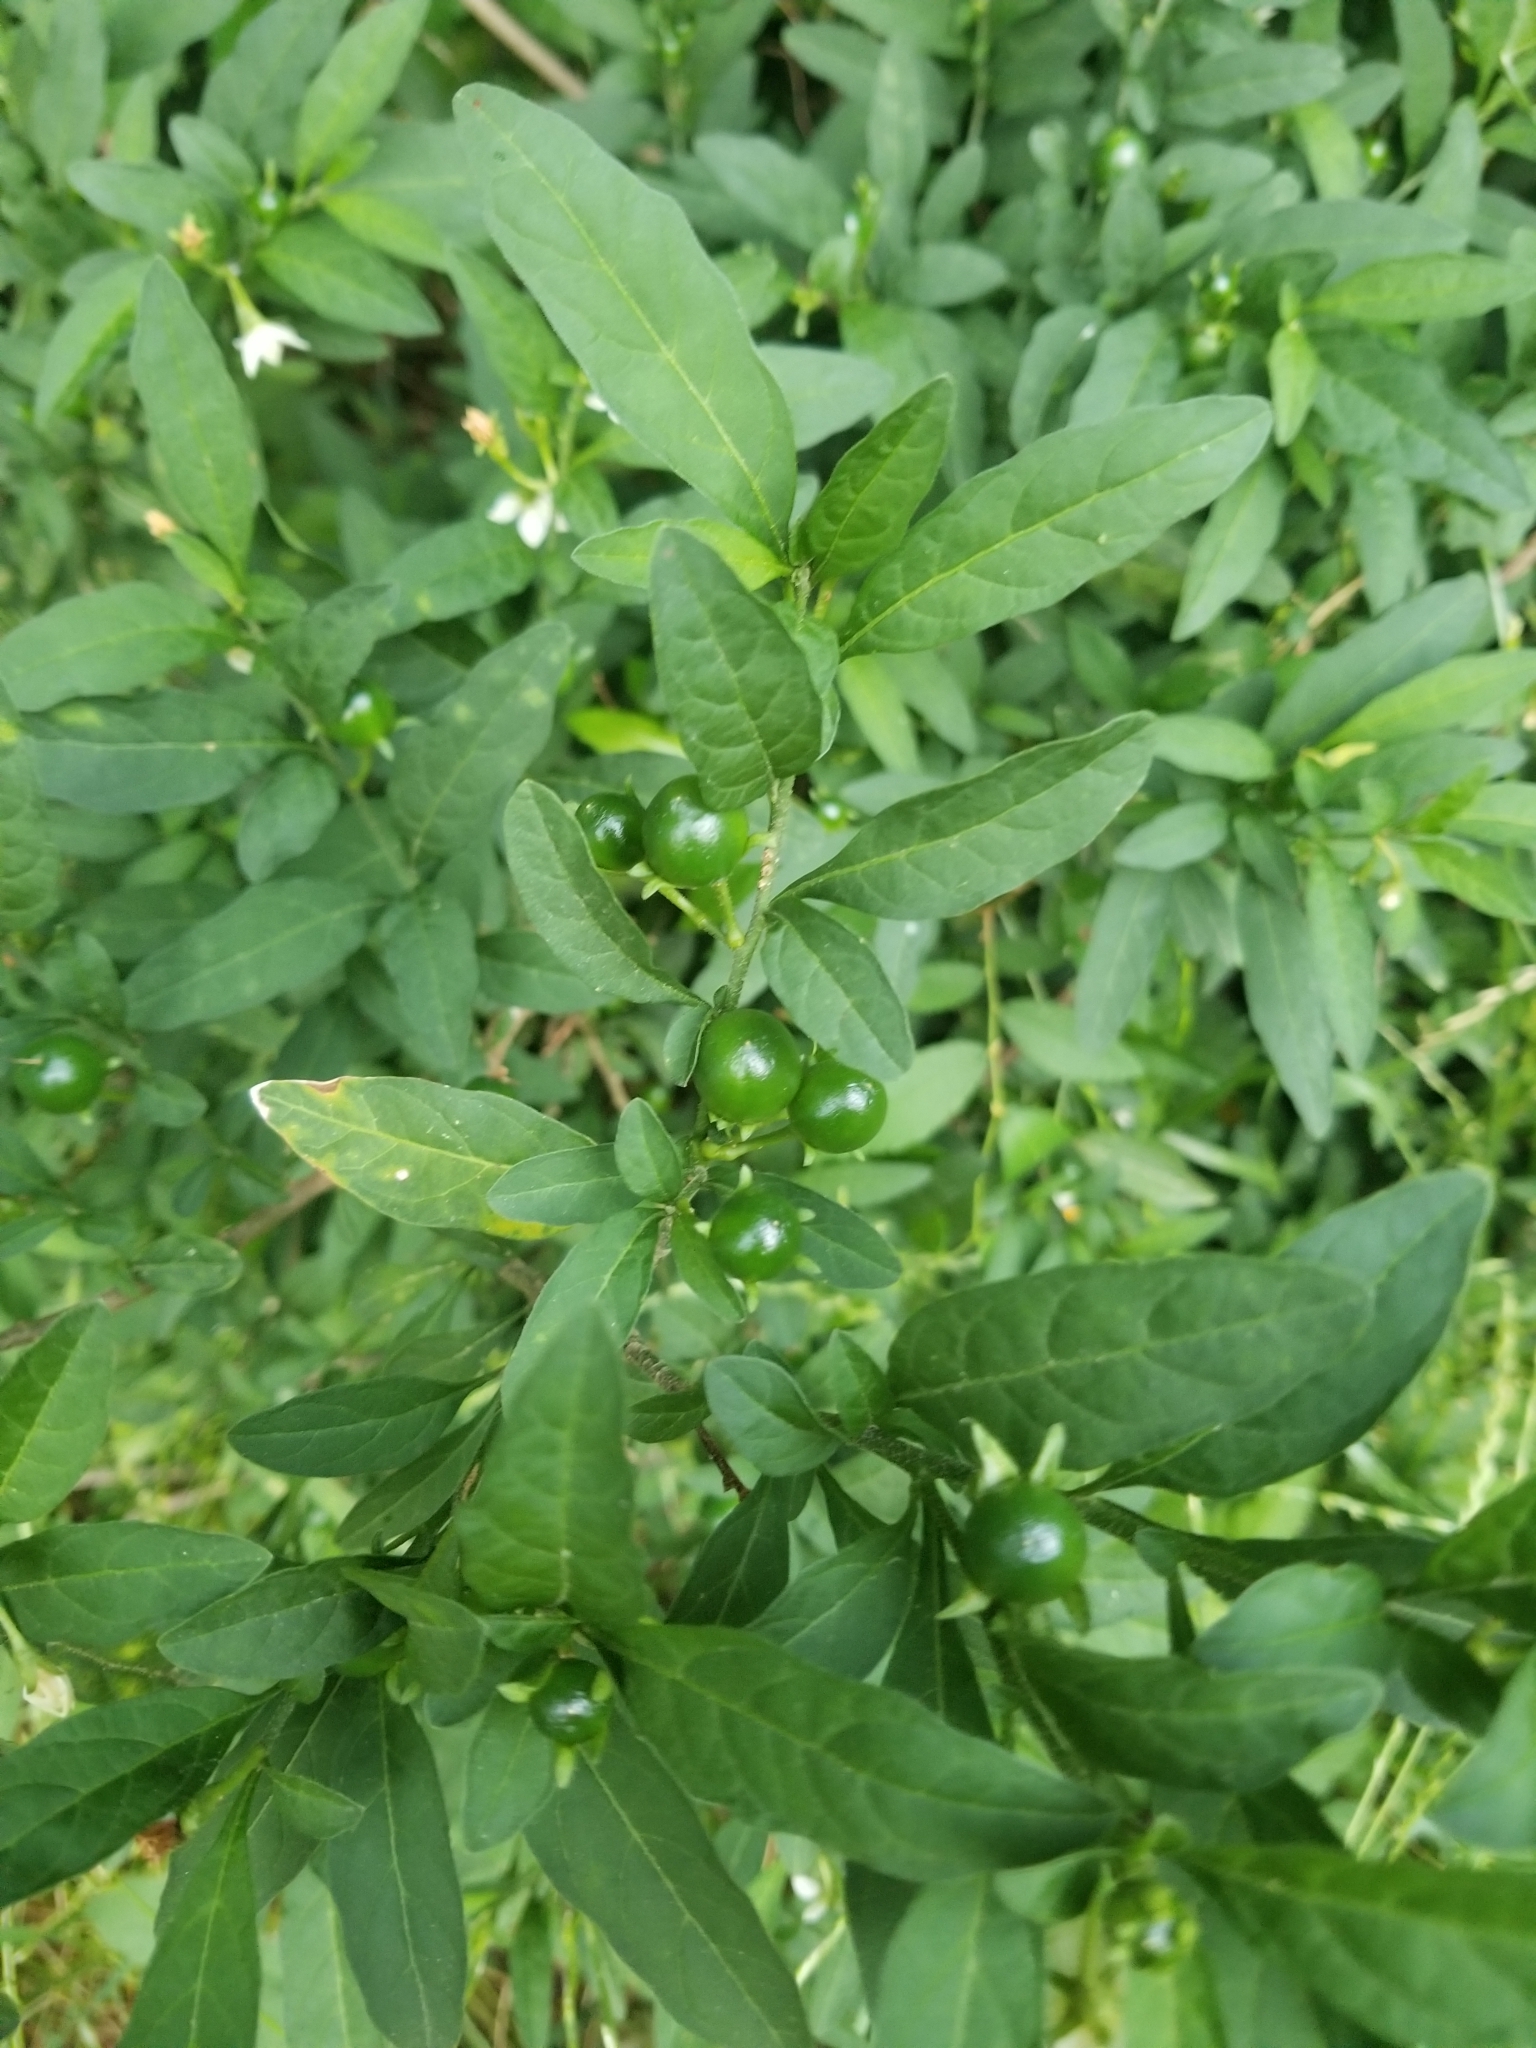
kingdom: Plantae
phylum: Tracheophyta
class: Magnoliopsida
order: Solanales
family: Solanaceae
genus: Solanum
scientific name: Solanum pseudocapsicum
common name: Jerusalem cherry
